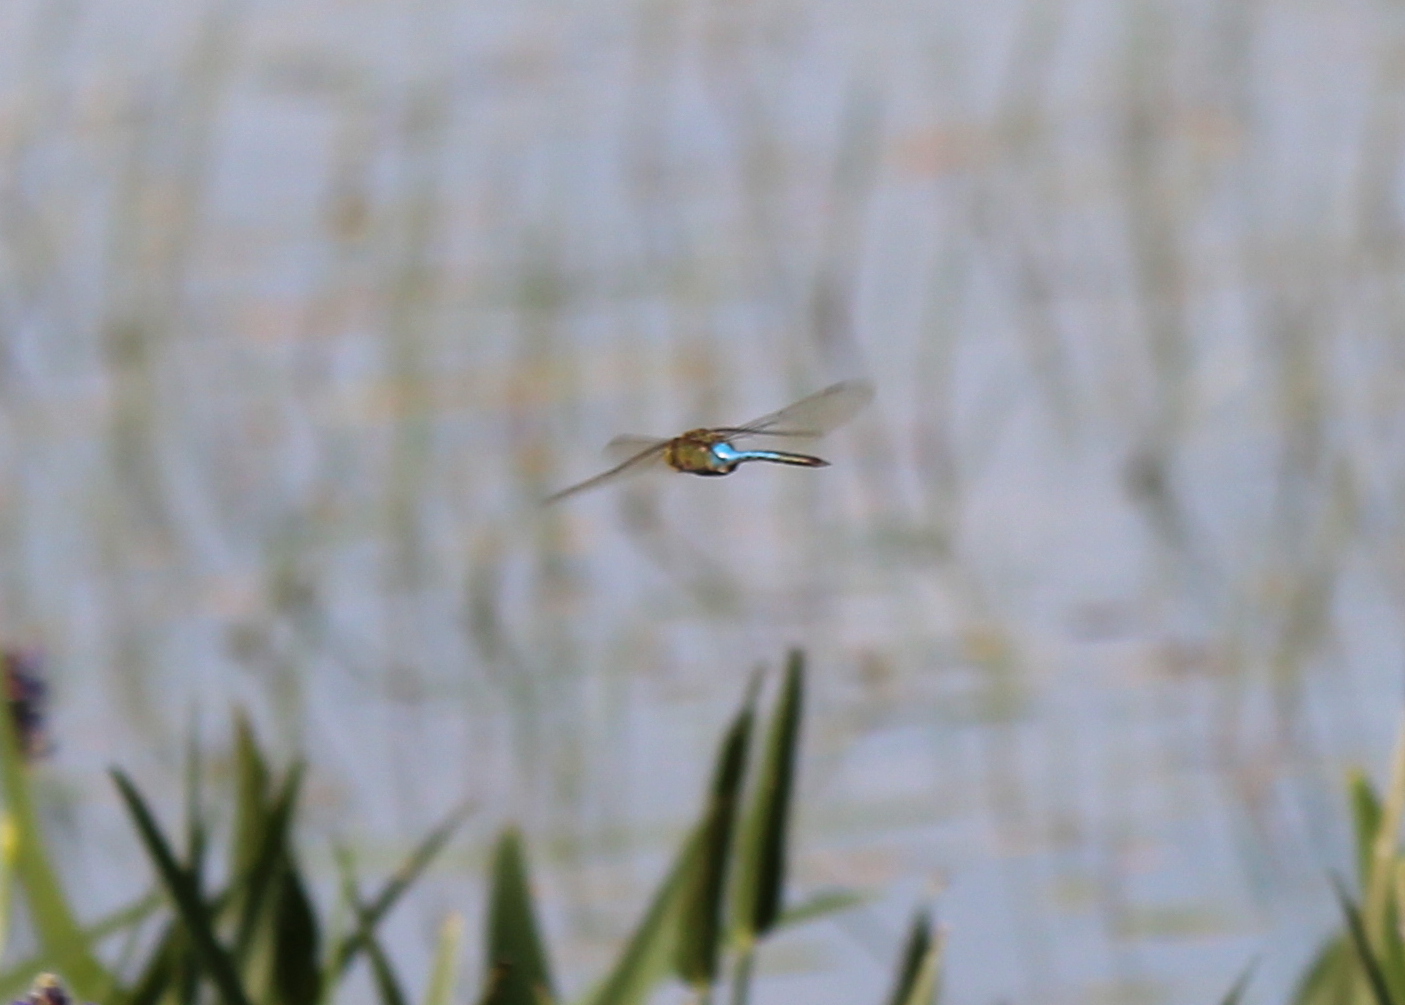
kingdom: Animalia
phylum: Arthropoda
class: Insecta
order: Odonata
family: Aeshnidae
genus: Anax
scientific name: Anax junius
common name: Common green darner
